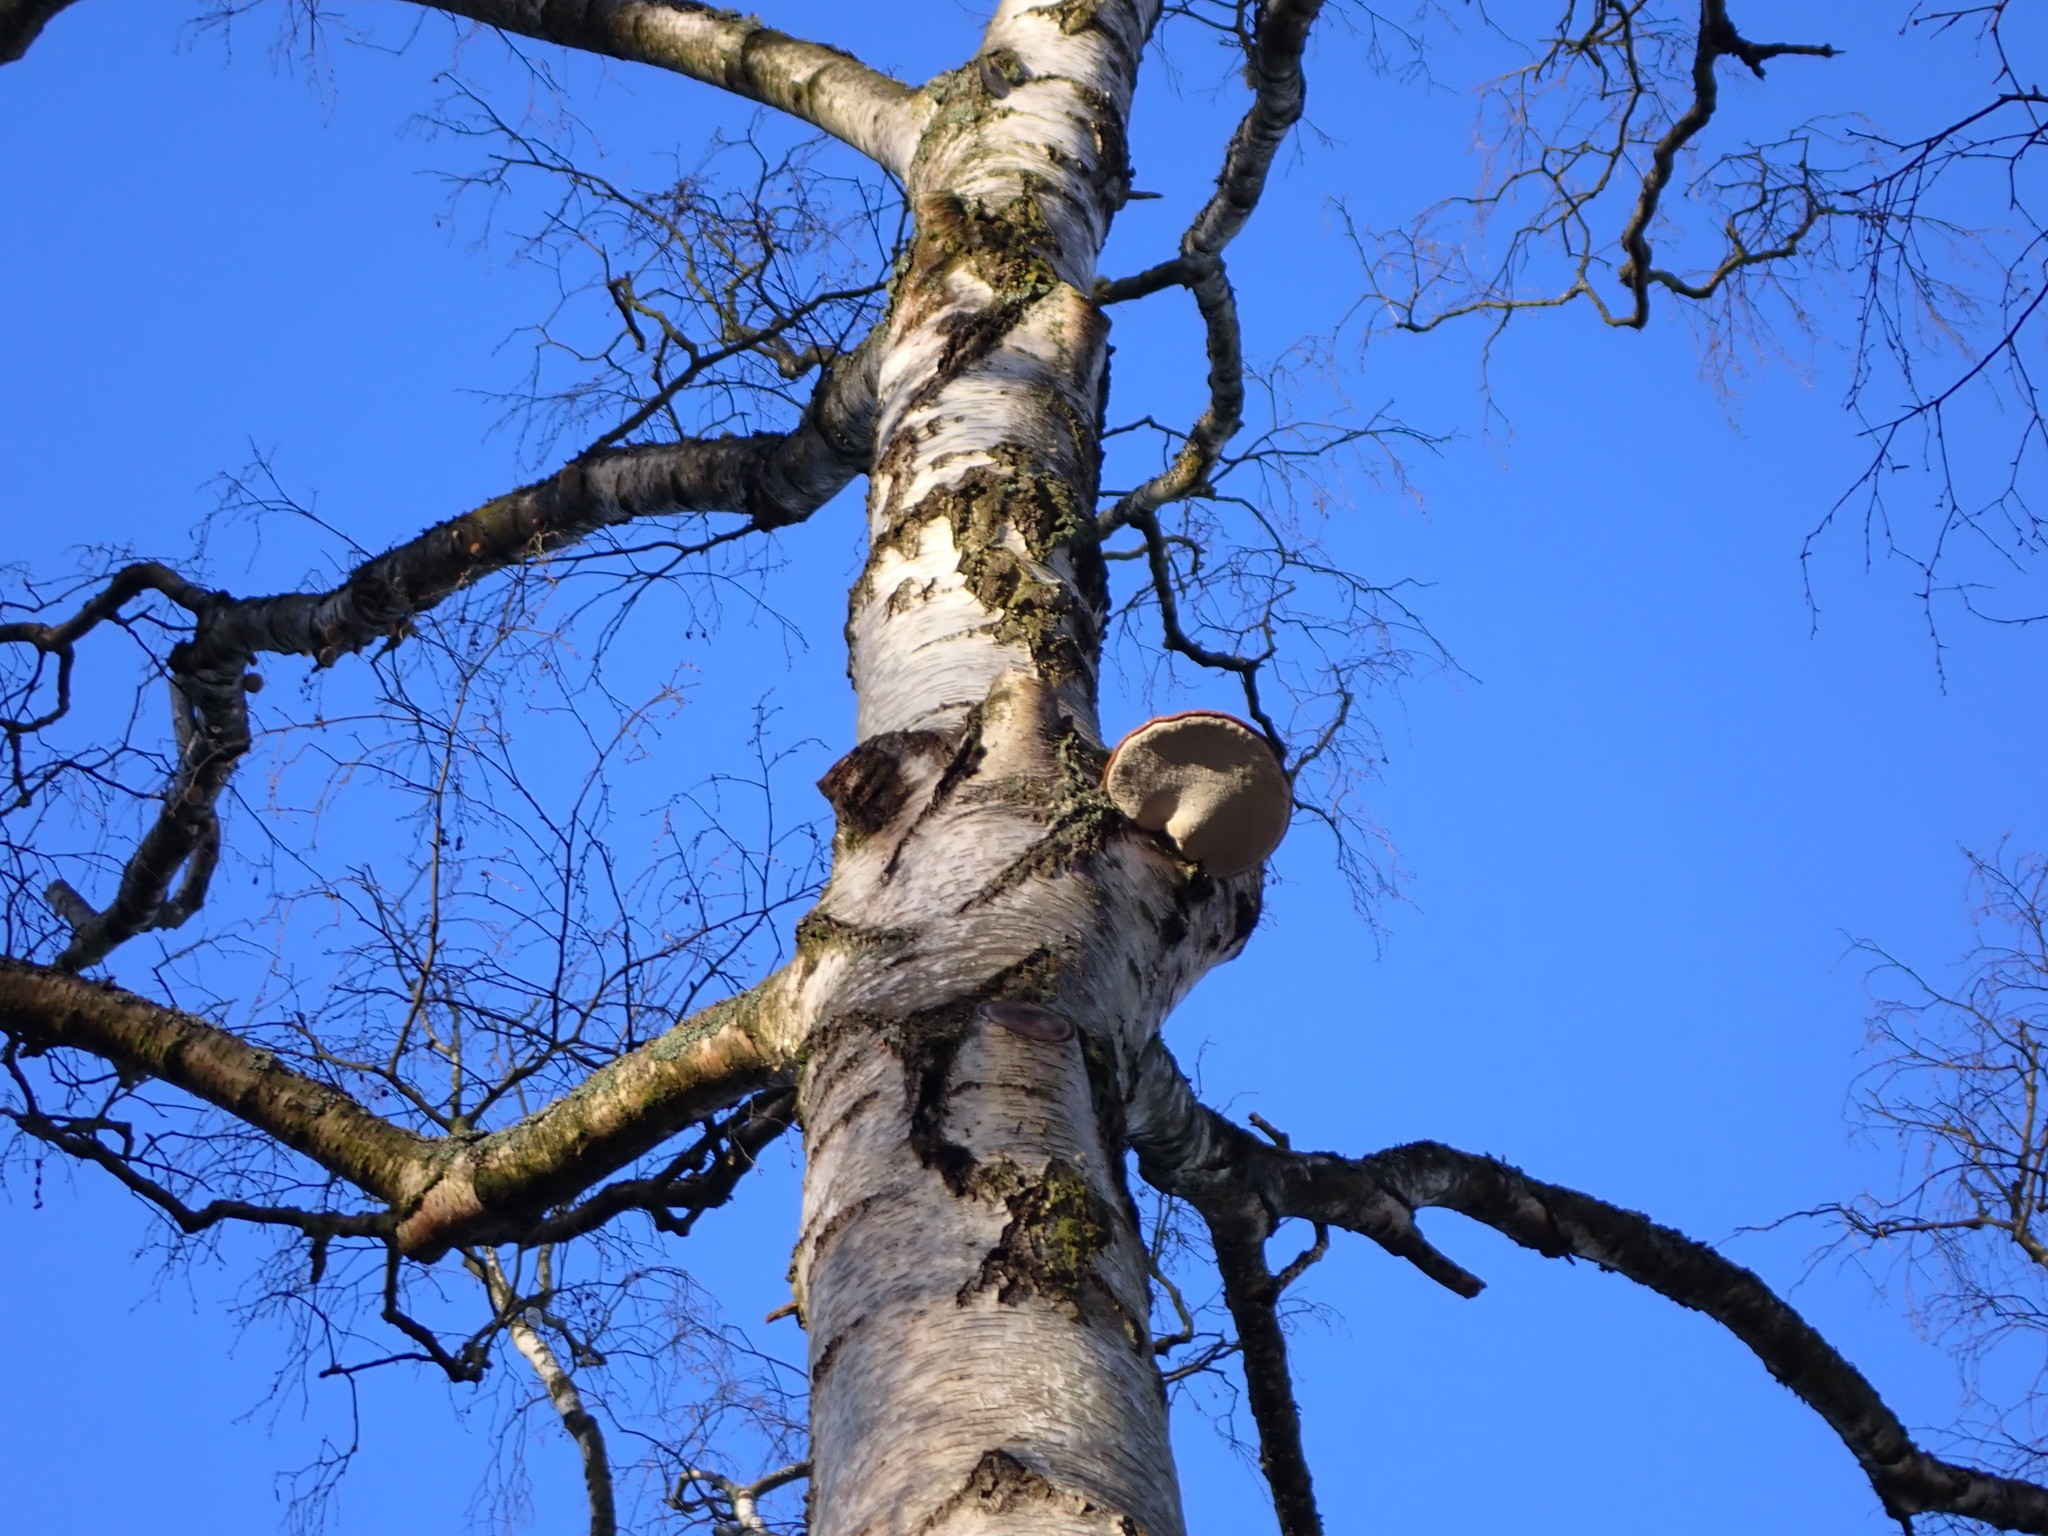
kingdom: Fungi
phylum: Basidiomycota
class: Agaricomycetes
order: Polyporales
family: Fomitopsidaceae
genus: Fomitopsis
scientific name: Fomitopsis betulina
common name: Birch polypore
